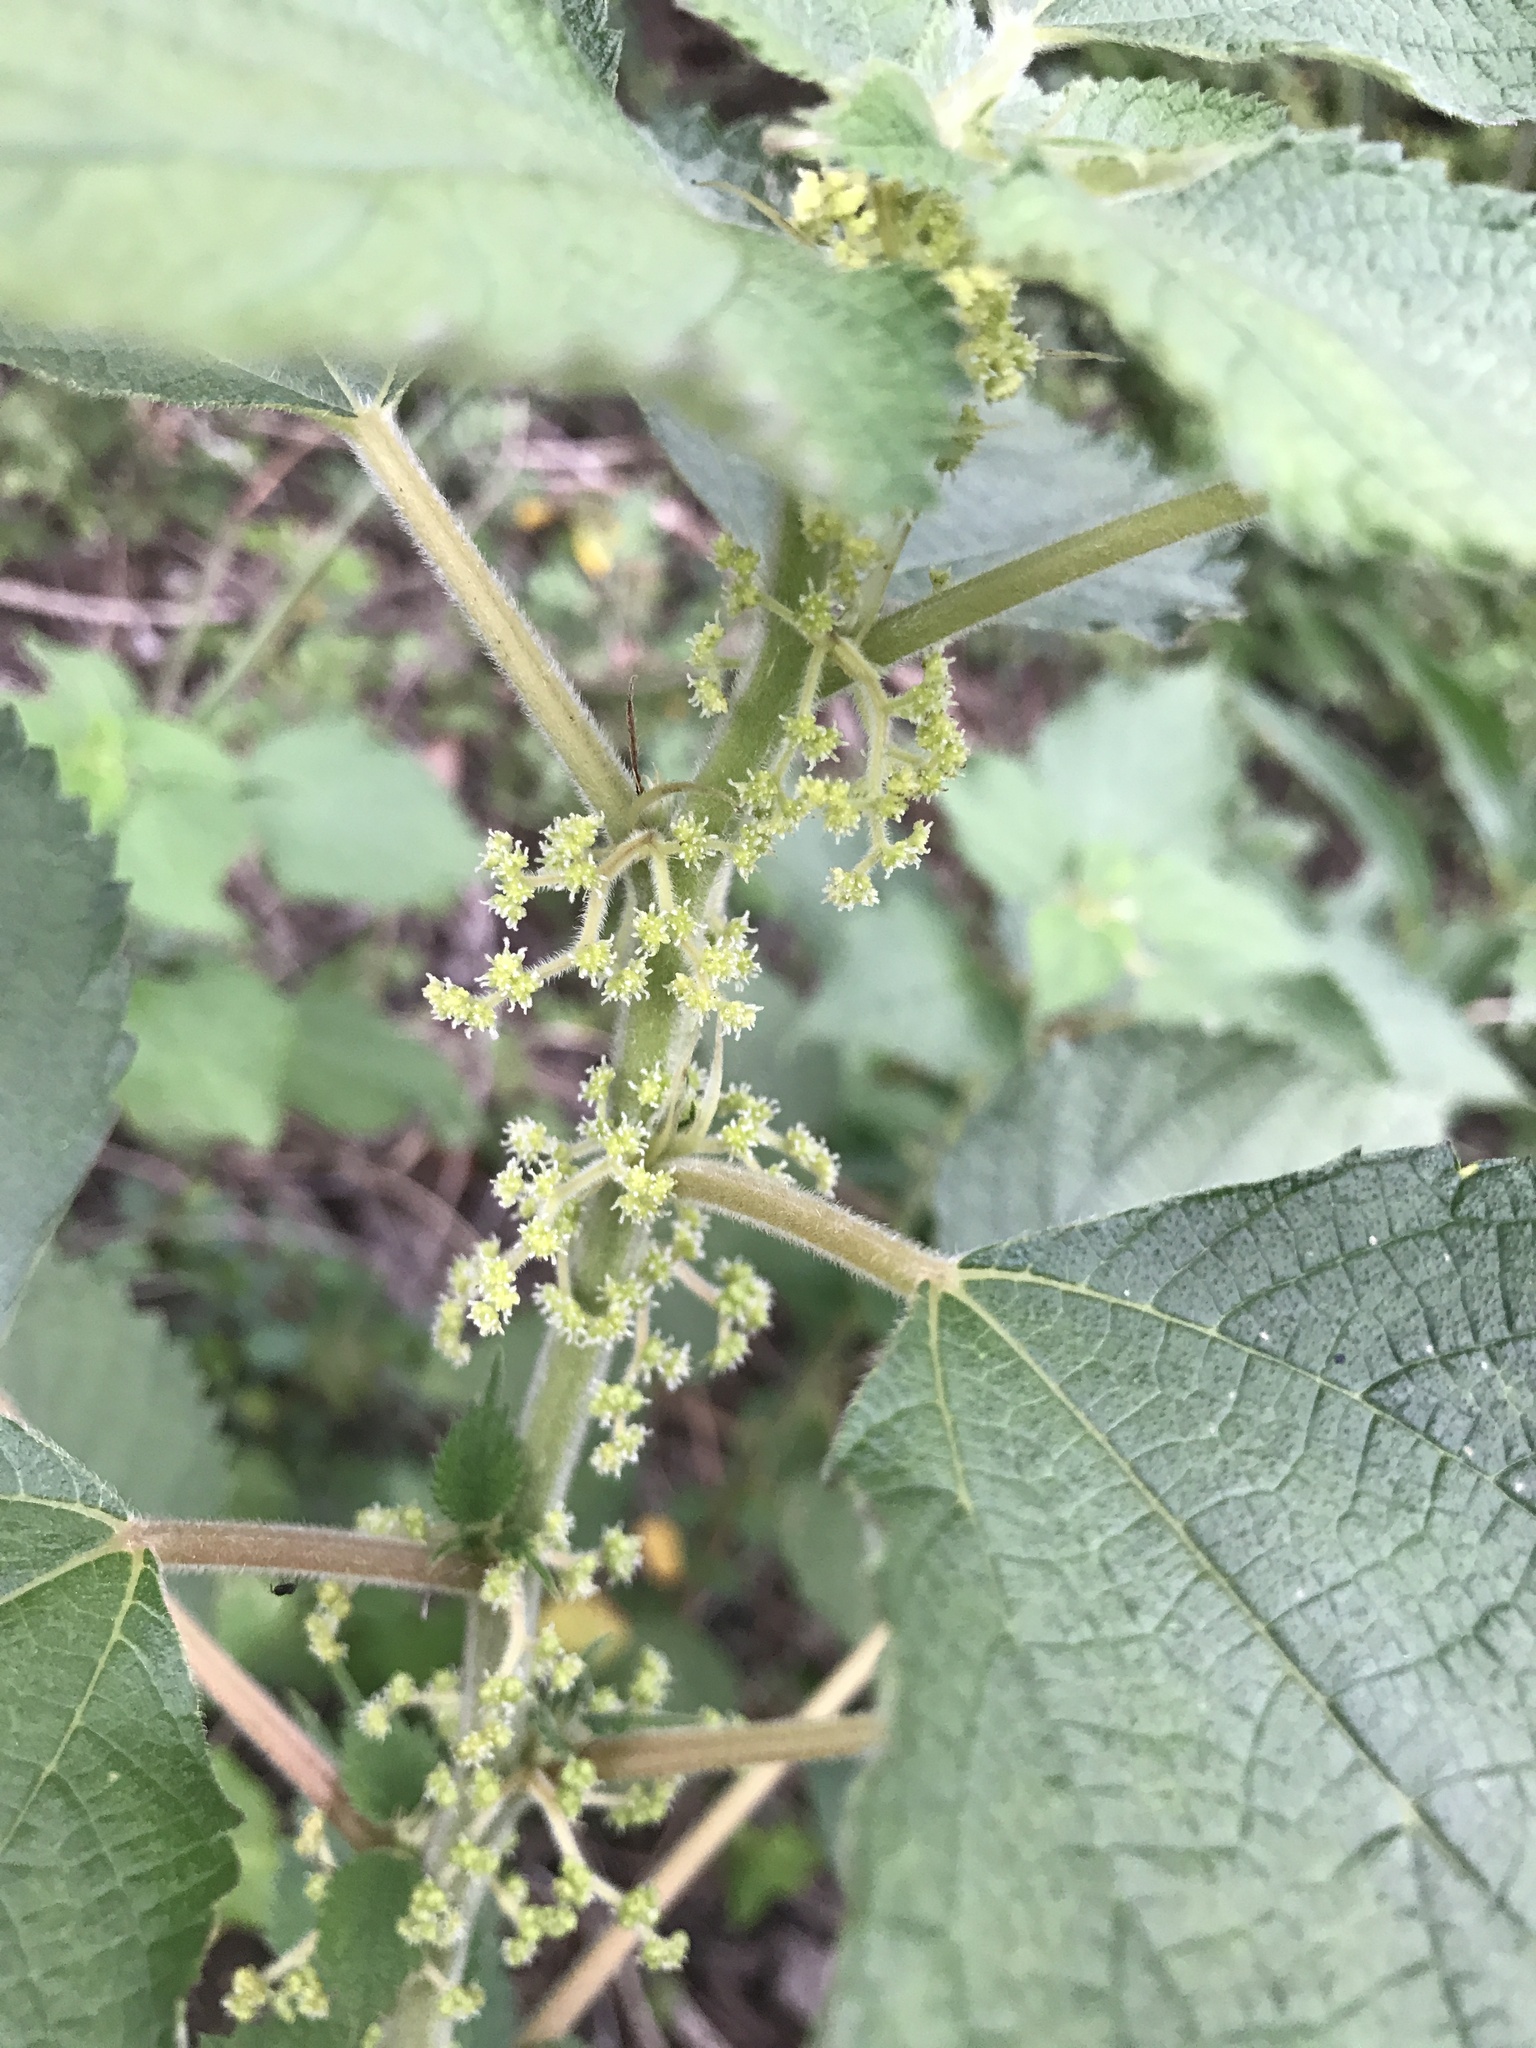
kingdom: Plantae
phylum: Tracheophyta
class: Magnoliopsida
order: Rosales
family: Urticaceae
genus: Boehmeria
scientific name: Boehmeria nivea
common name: Ramie chinese grass
